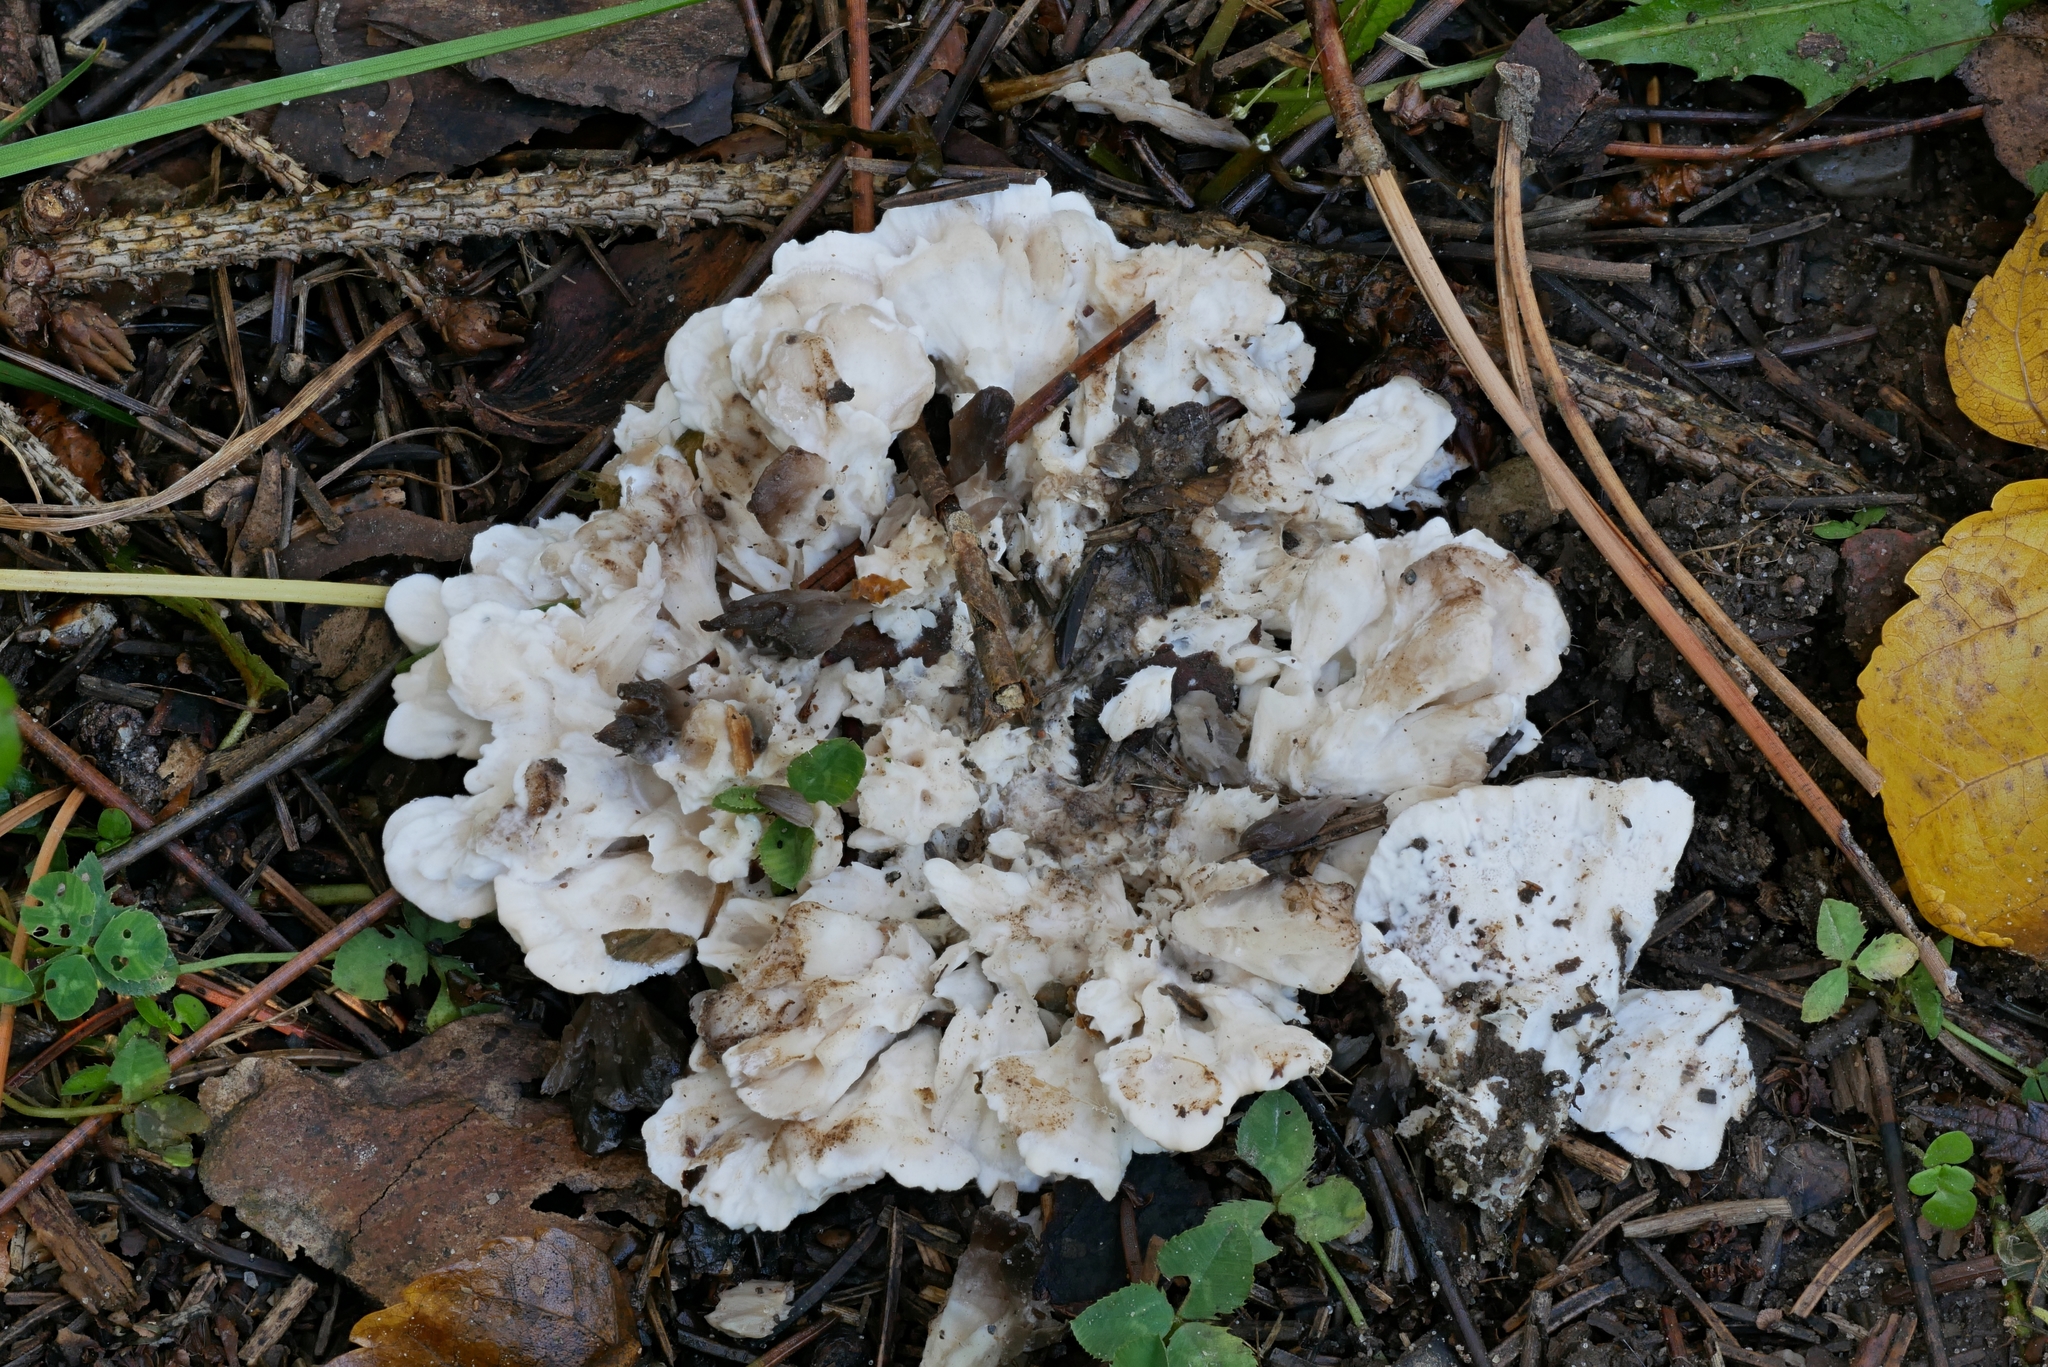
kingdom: Fungi
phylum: Basidiomycota
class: Agaricomycetes
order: Polyporales
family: Dacryobolaceae
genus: Spongiporus
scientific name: Spongiporus floriformis
